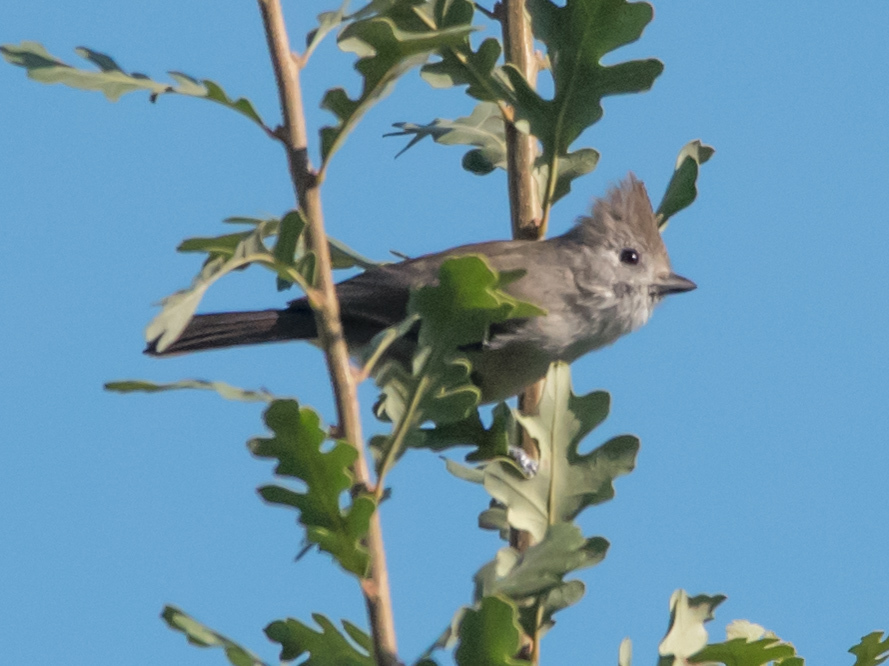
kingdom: Animalia
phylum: Chordata
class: Aves
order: Passeriformes
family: Paridae
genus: Baeolophus
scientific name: Baeolophus inornatus
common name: Oak titmouse
